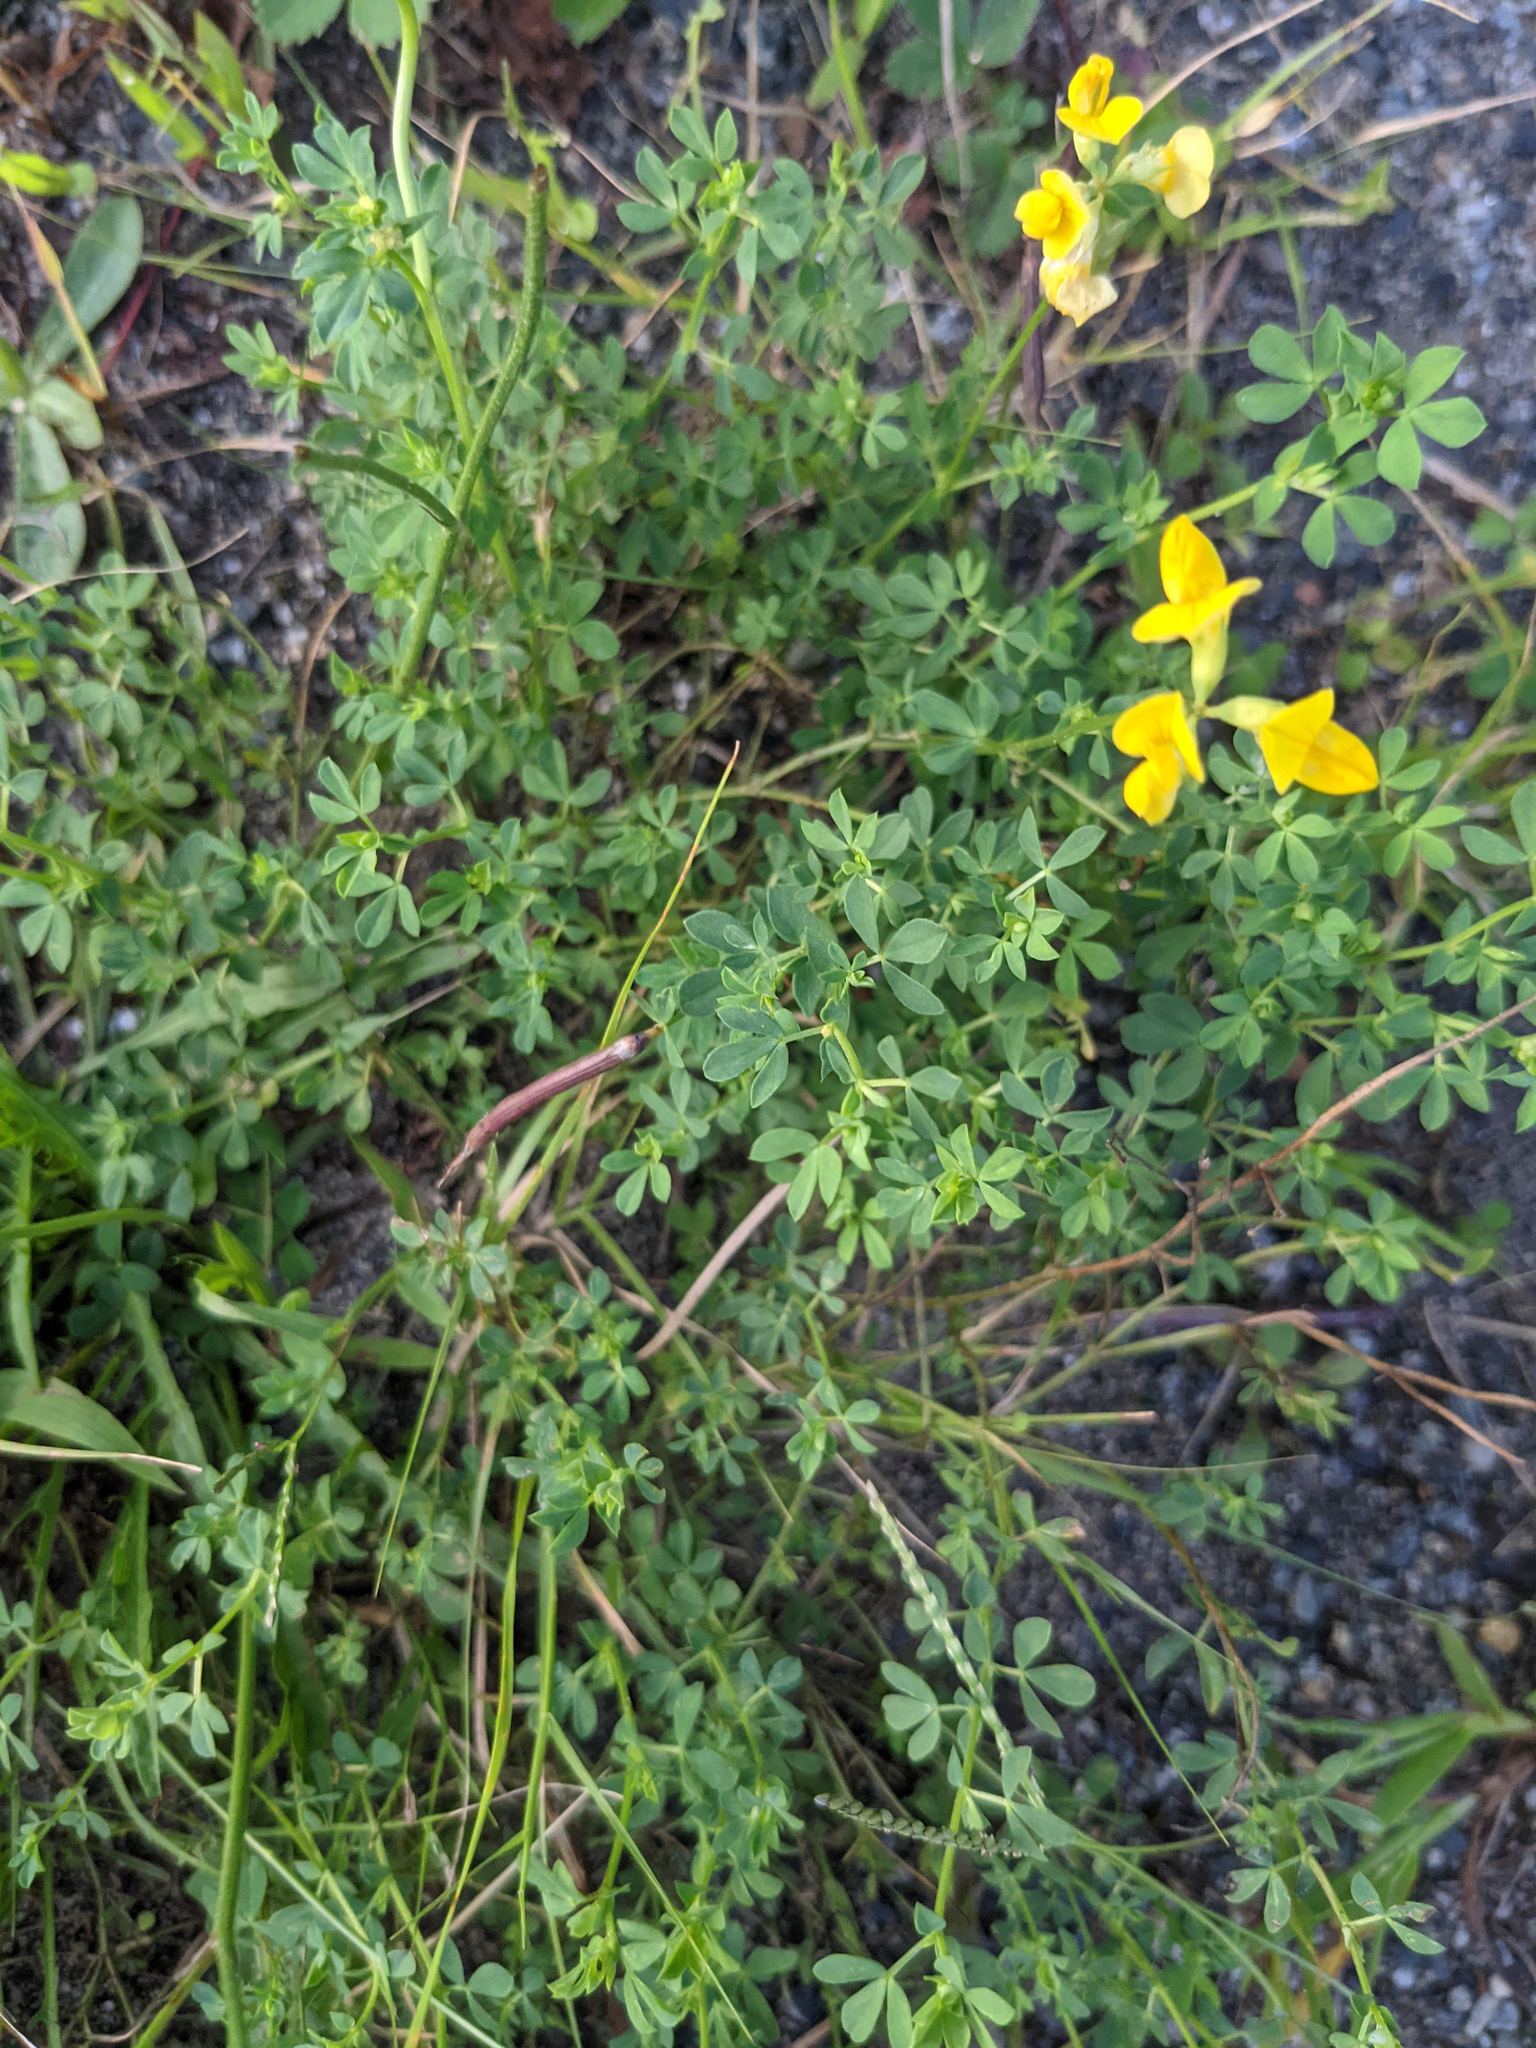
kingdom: Plantae
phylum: Tracheophyta
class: Magnoliopsida
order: Fabales
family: Fabaceae
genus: Lotus
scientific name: Lotus corniculatus
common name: Common bird's-foot-trefoil
